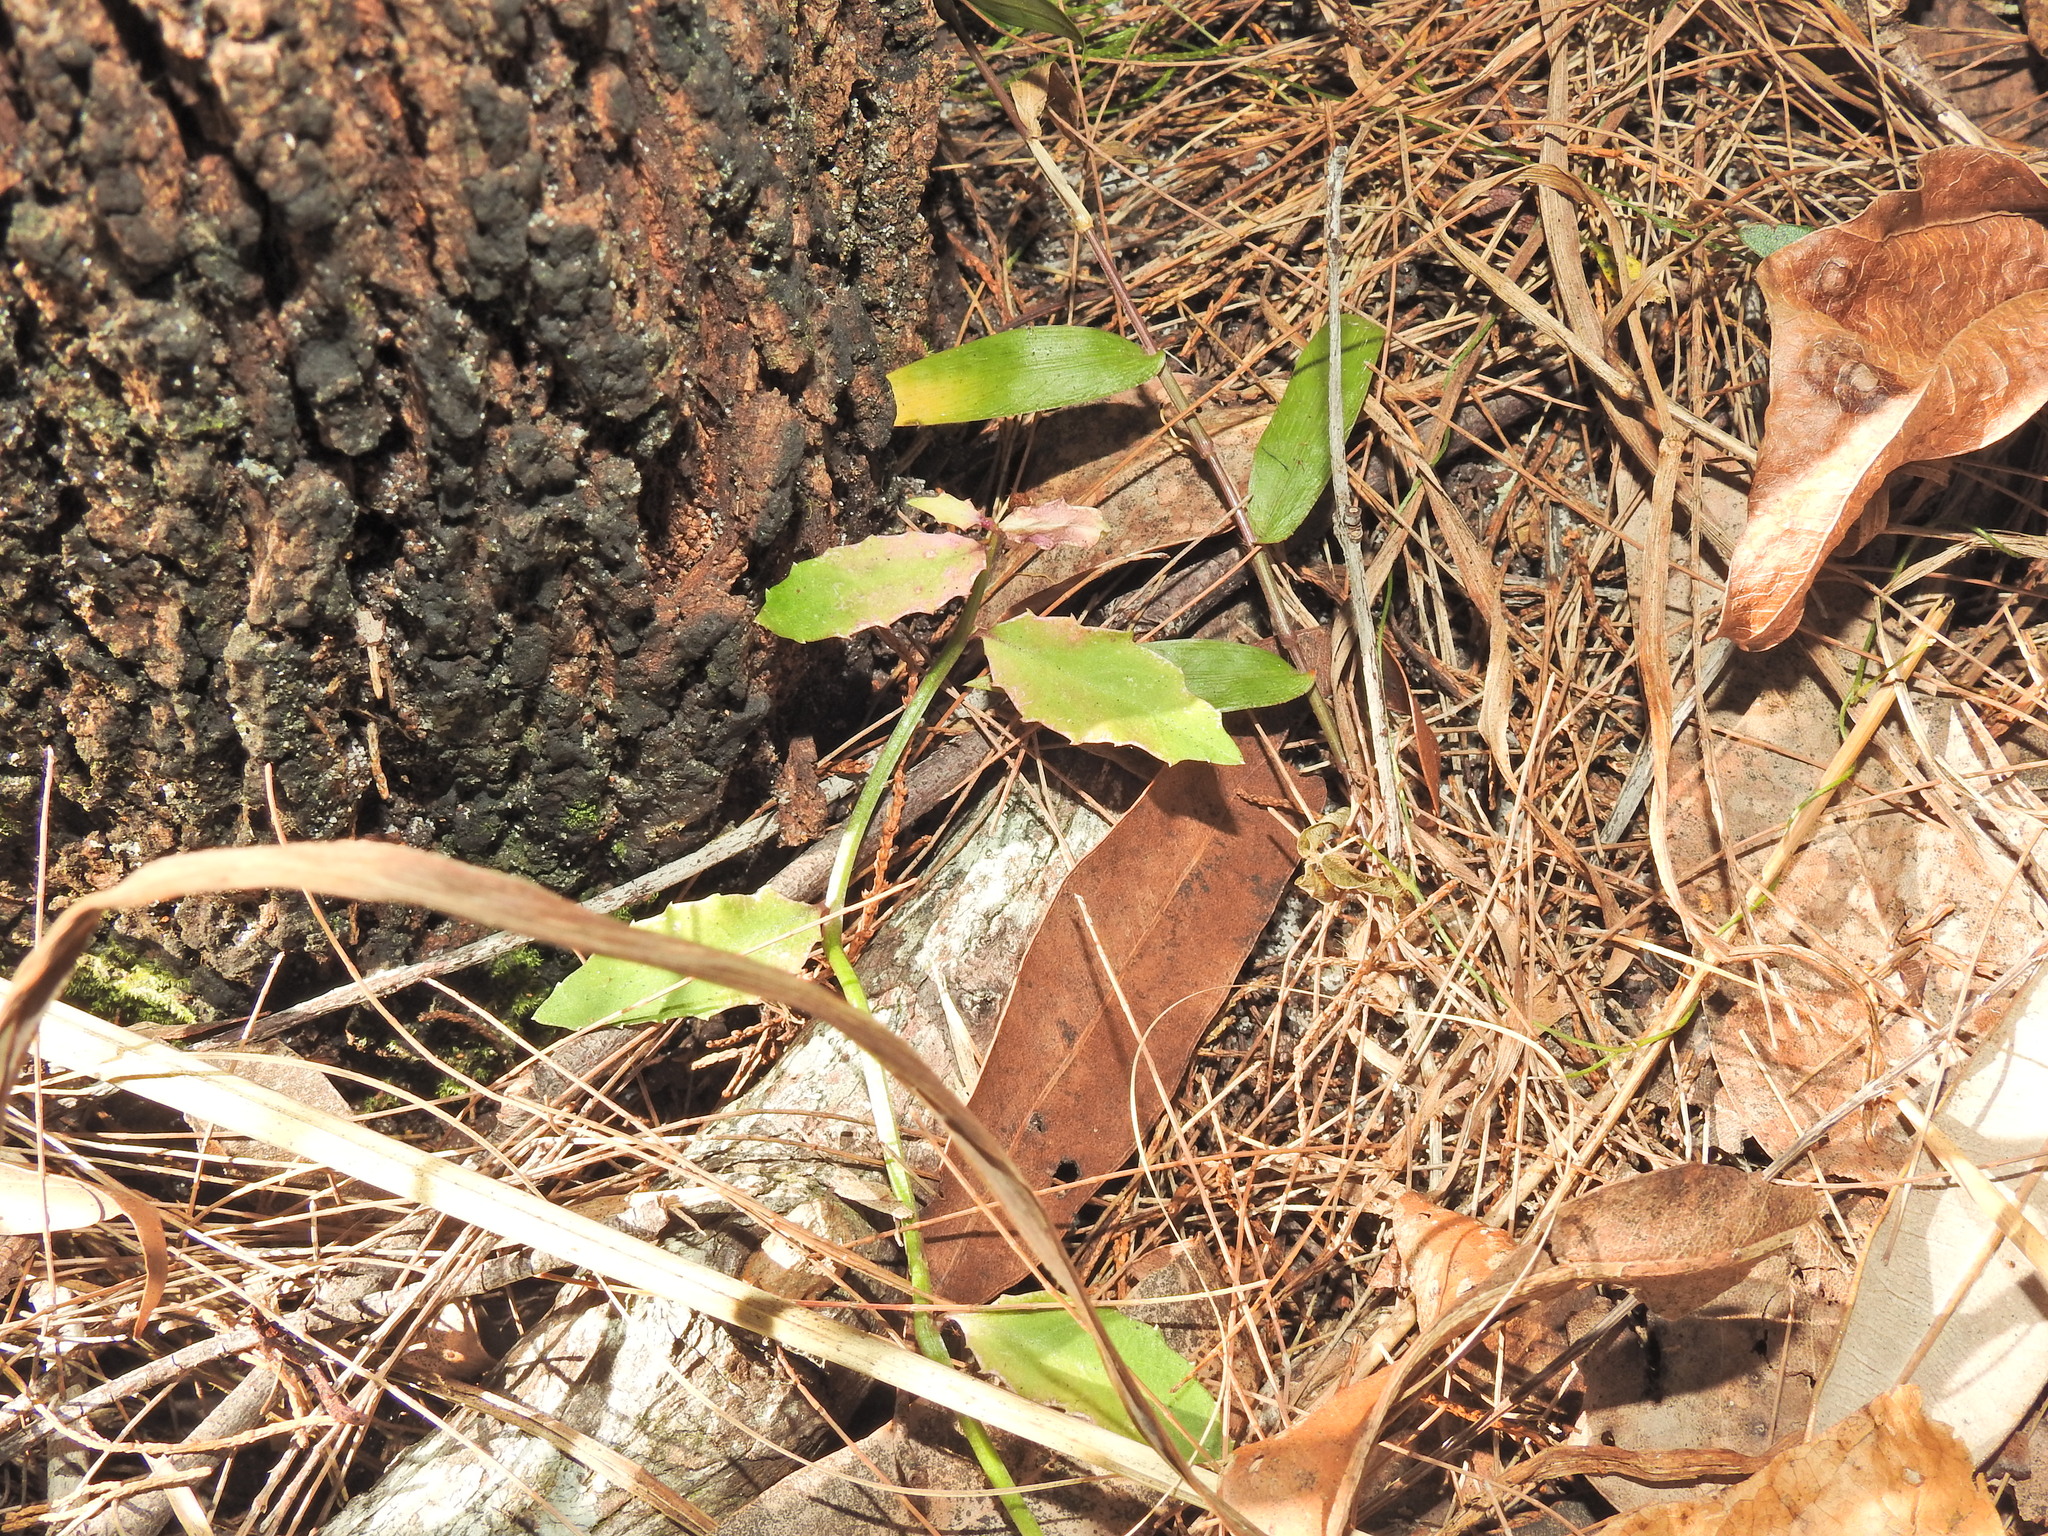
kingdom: Plantae
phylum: Tracheophyta
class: Magnoliopsida
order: Asterales
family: Campanulaceae
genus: Lobelia
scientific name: Lobelia purpurascens
